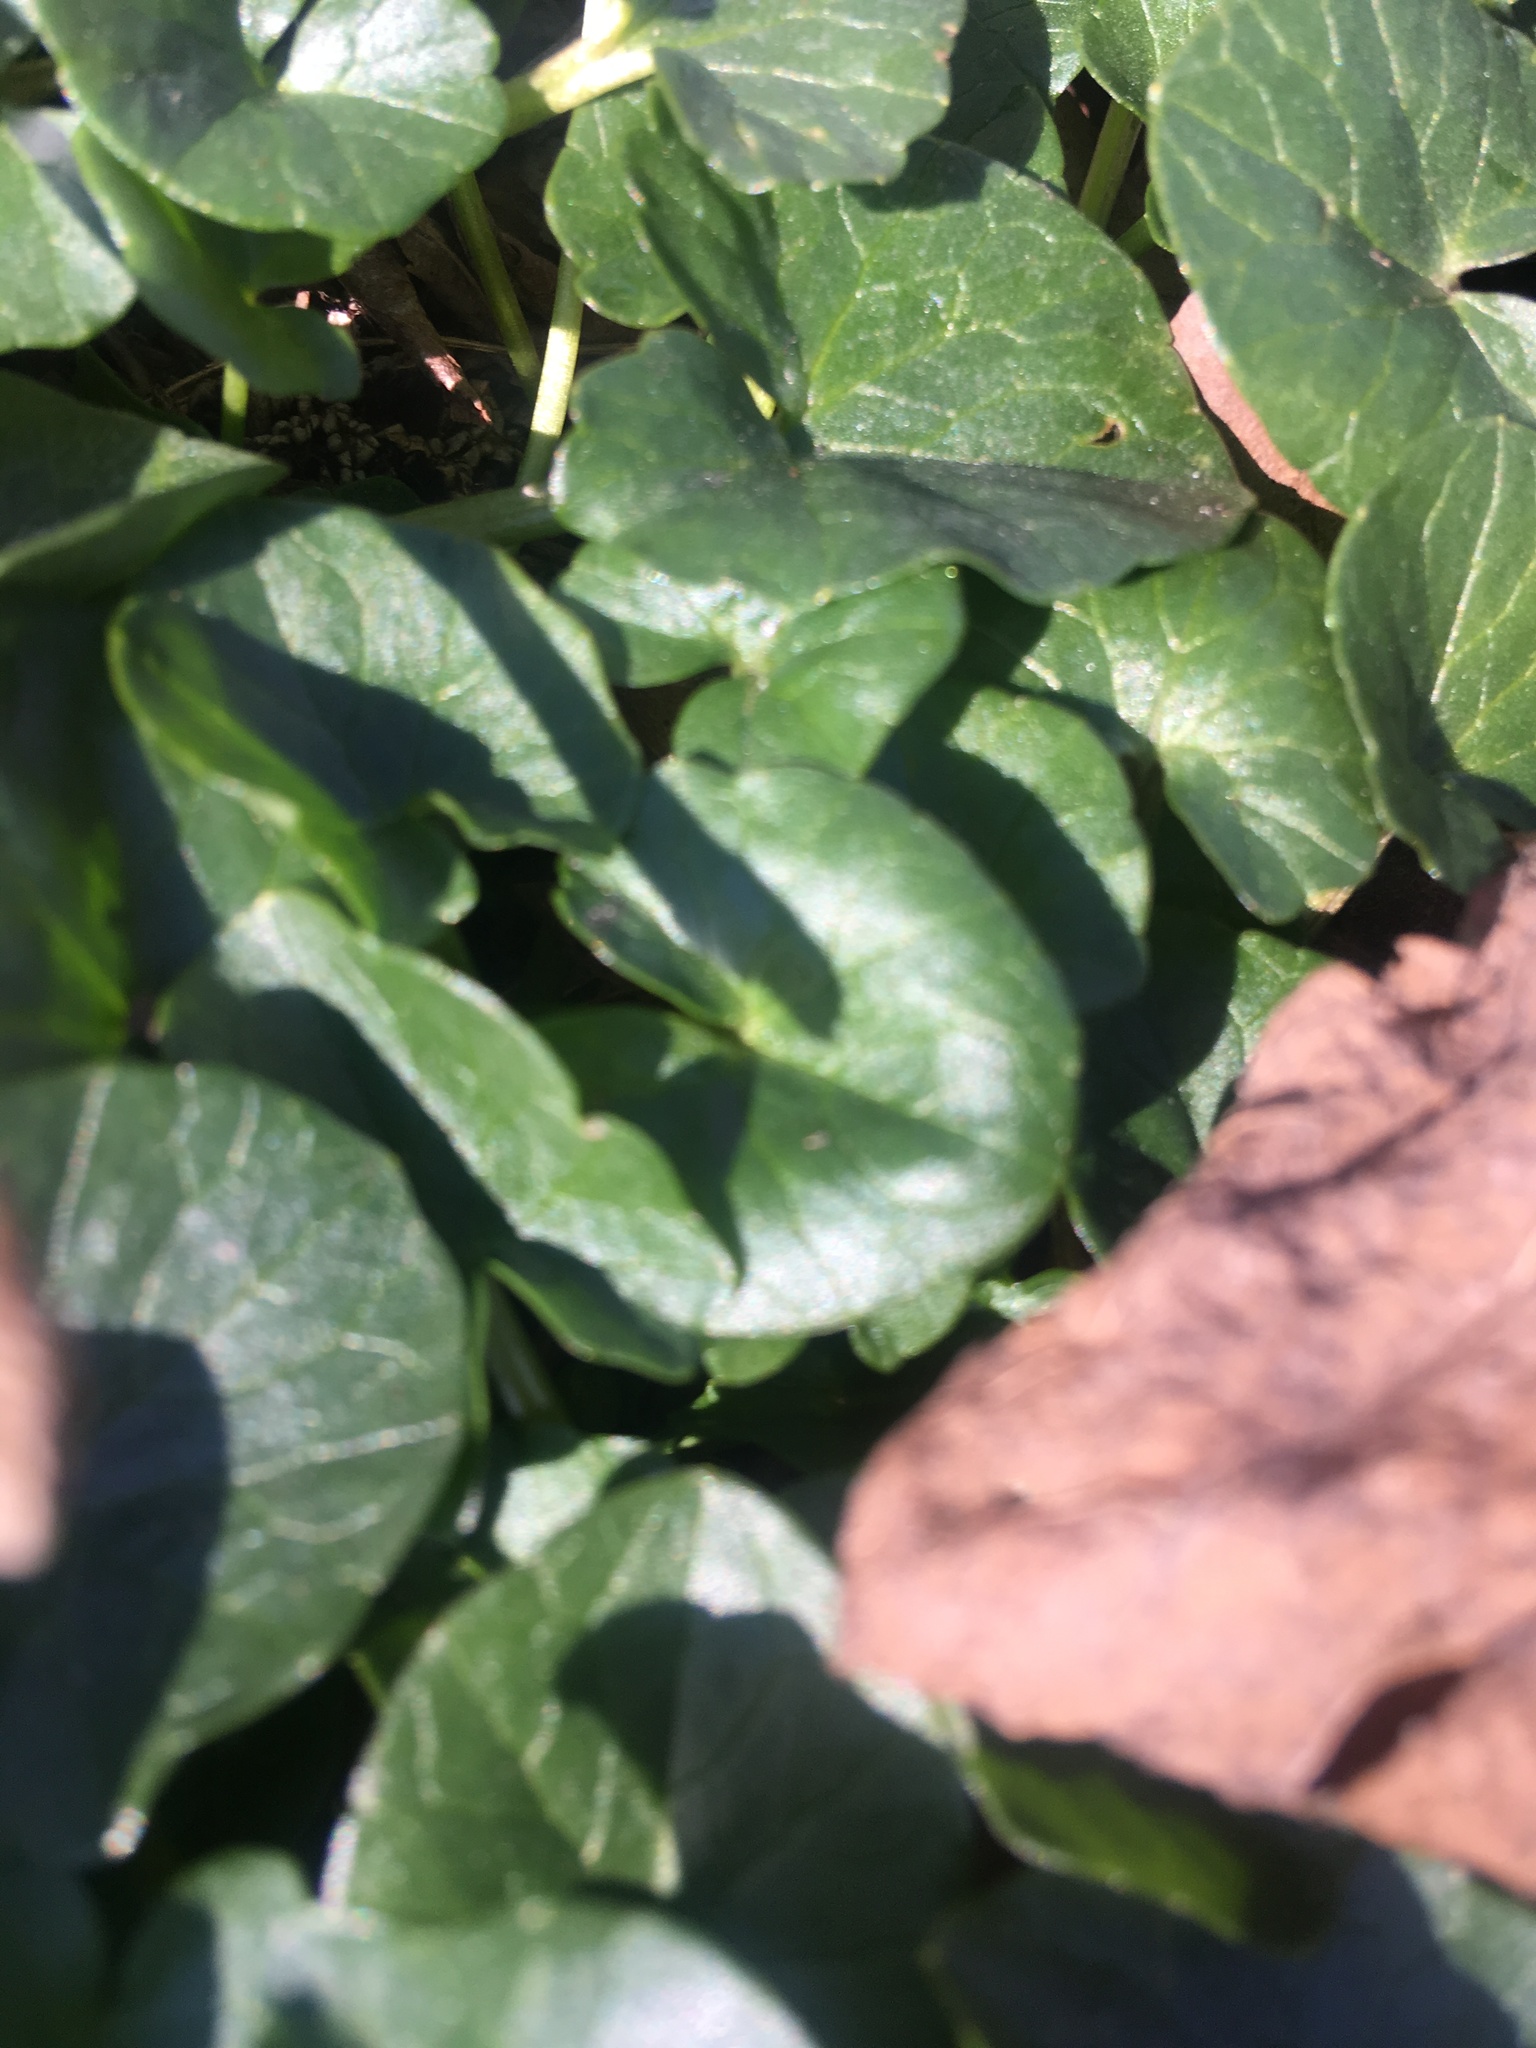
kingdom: Plantae
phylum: Tracheophyta
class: Magnoliopsida
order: Ranunculales
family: Ranunculaceae
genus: Ficaria
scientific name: Ficaria verna
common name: Lesser celandine
